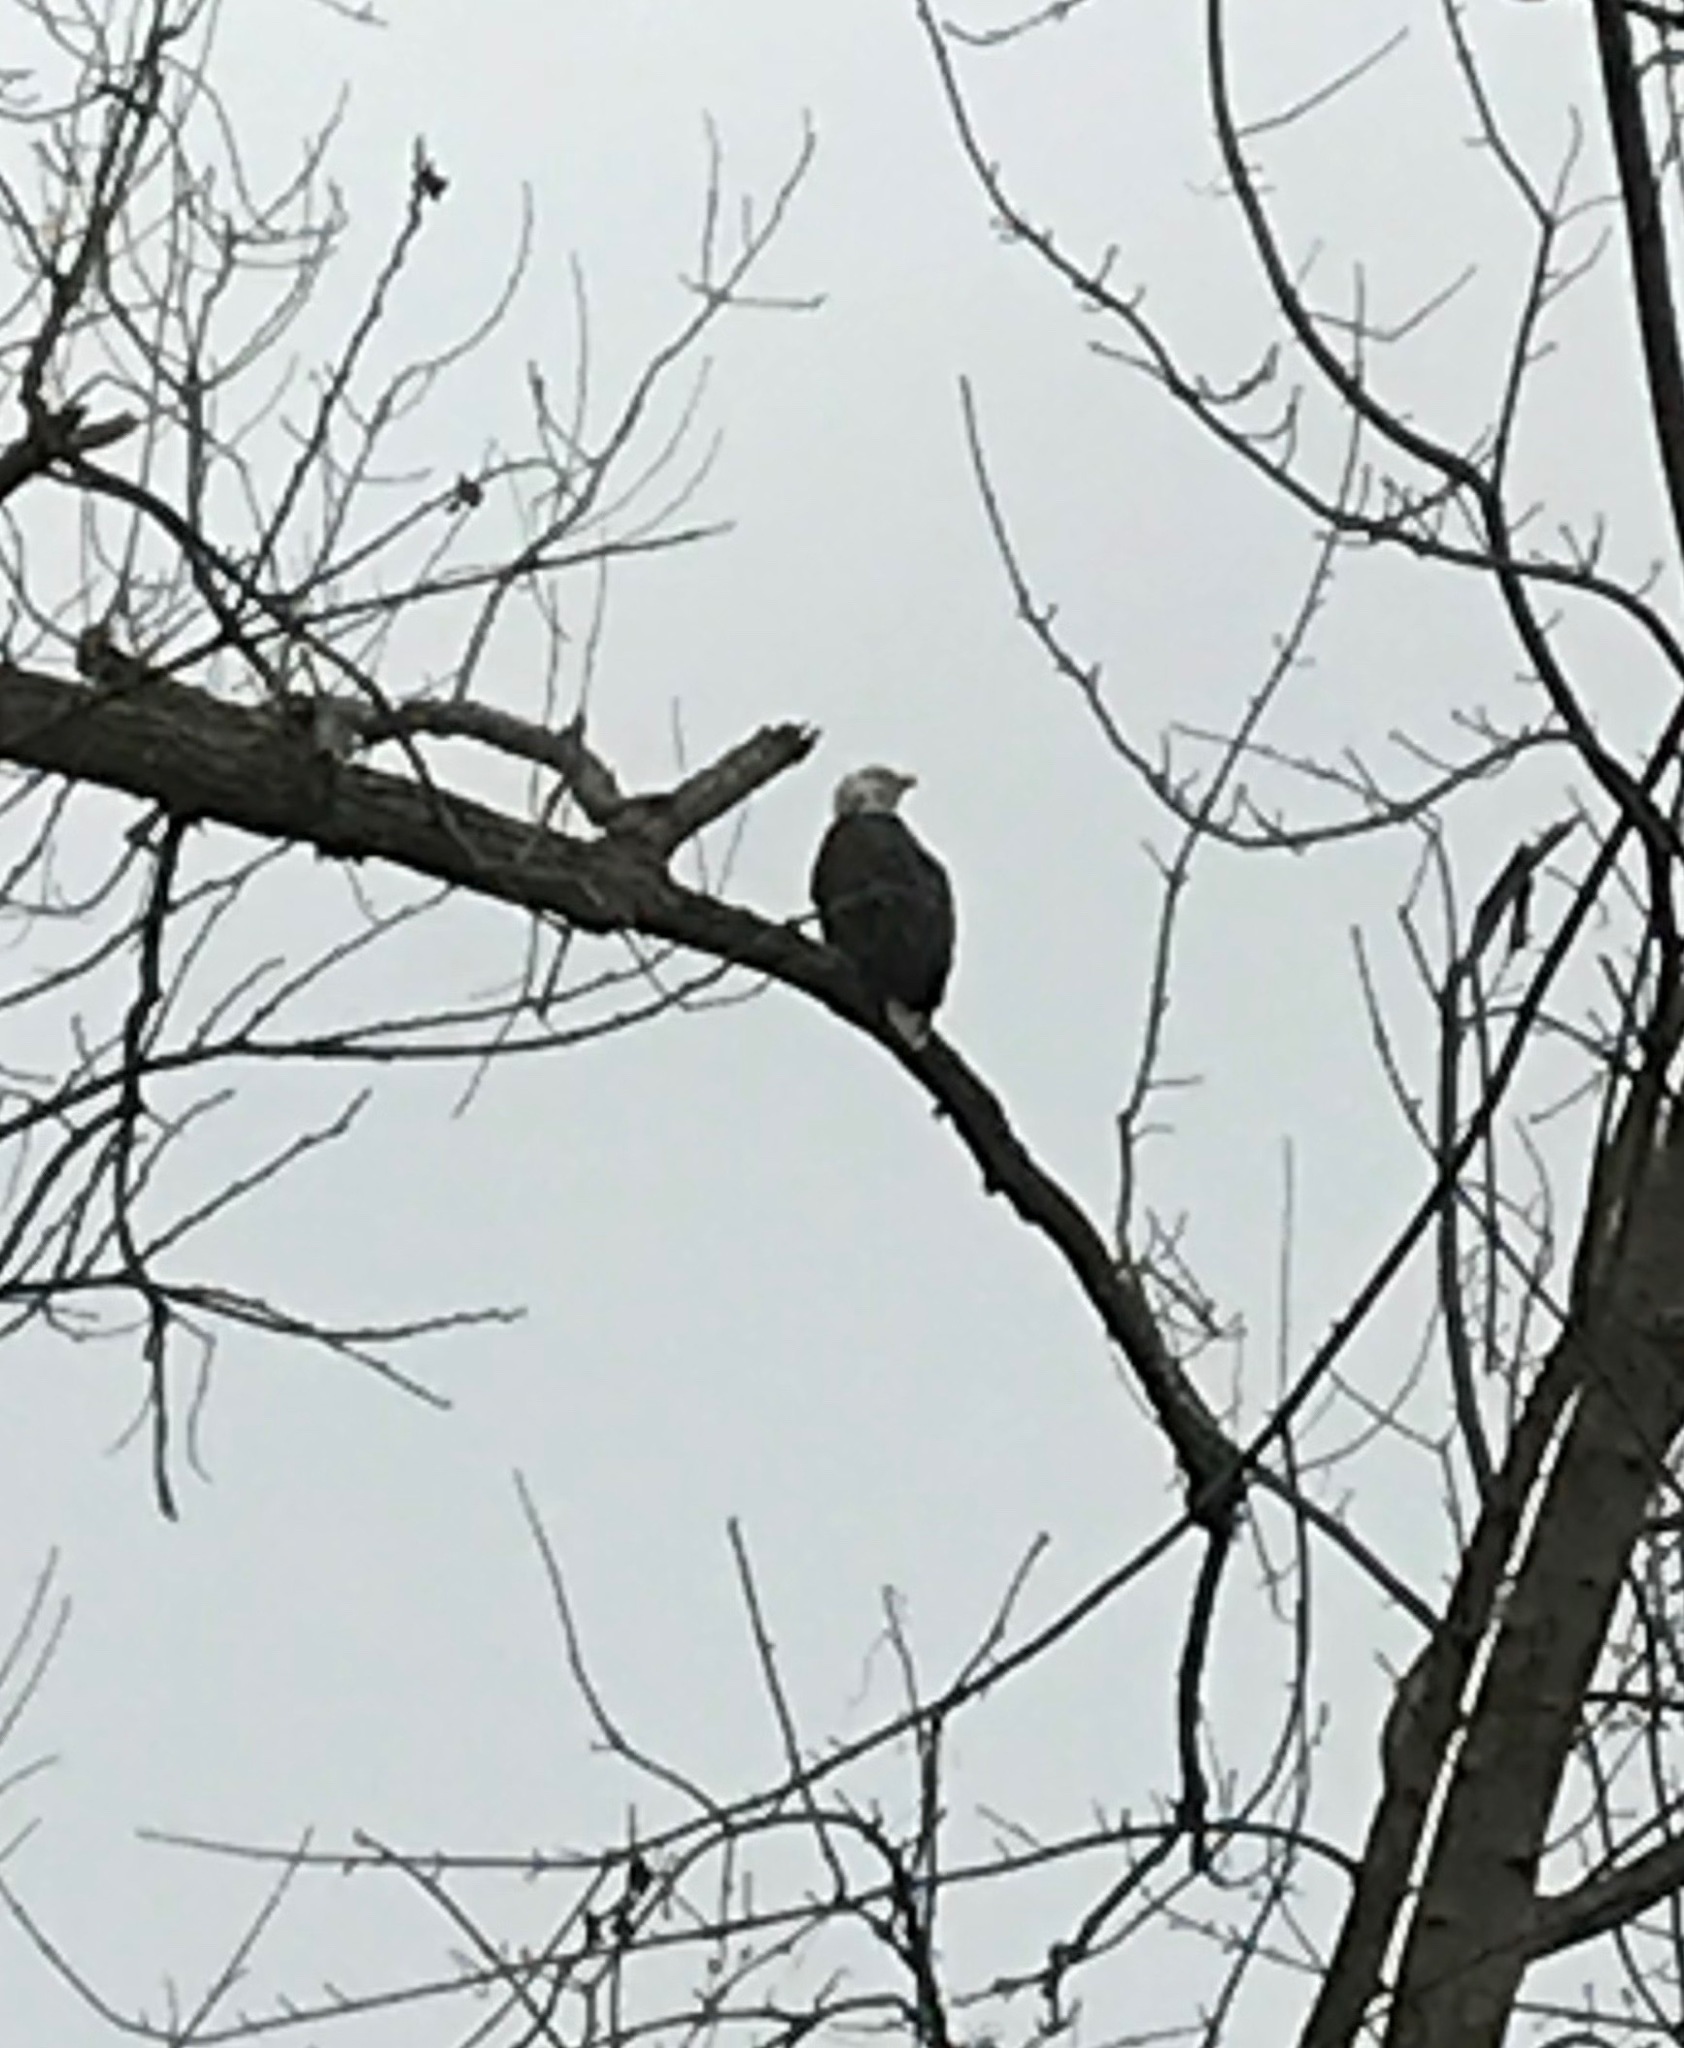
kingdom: Animalia
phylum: Chordata
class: Aves
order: Accipitriformes
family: Accipitridae
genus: Haliaeetus
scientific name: Haliaeetus leucocephalus
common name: Bald eagle
